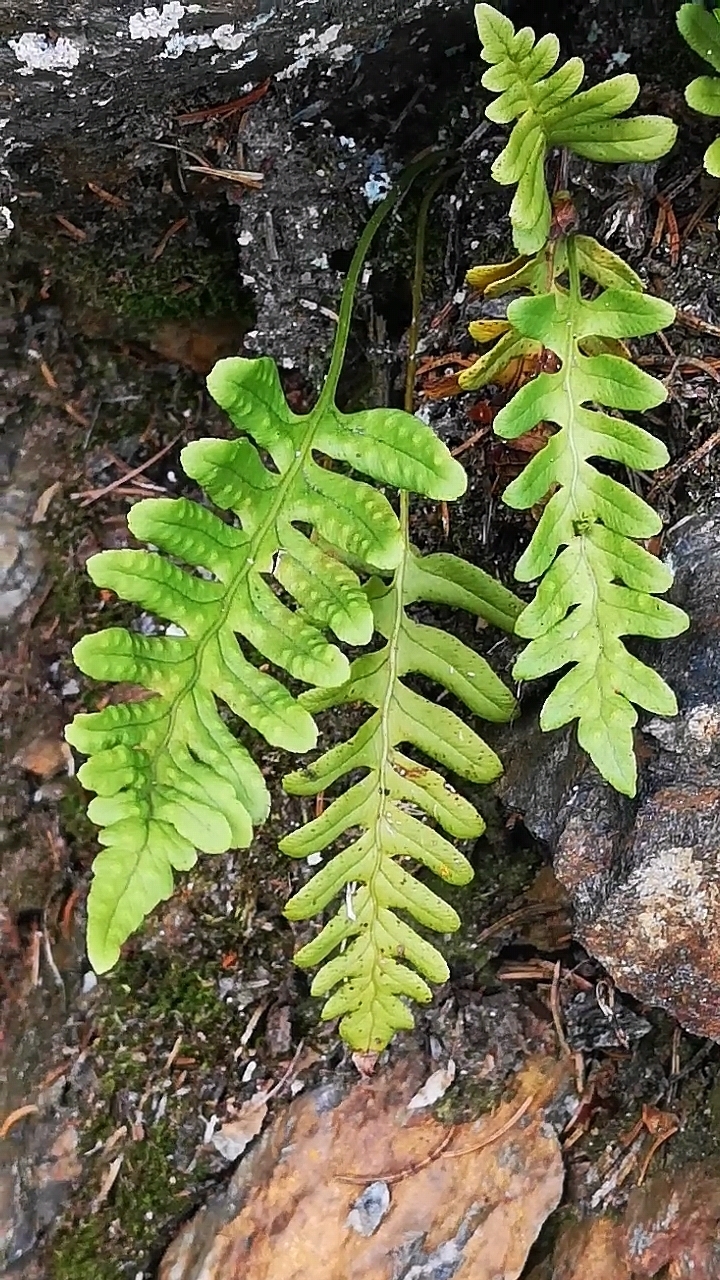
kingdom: Plantae
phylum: Tracheophyta
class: Polypodiopsida
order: Polypodiales
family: Polypodiaceae
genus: Polypodium
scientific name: Polypodium vulgare
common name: Common polypody
